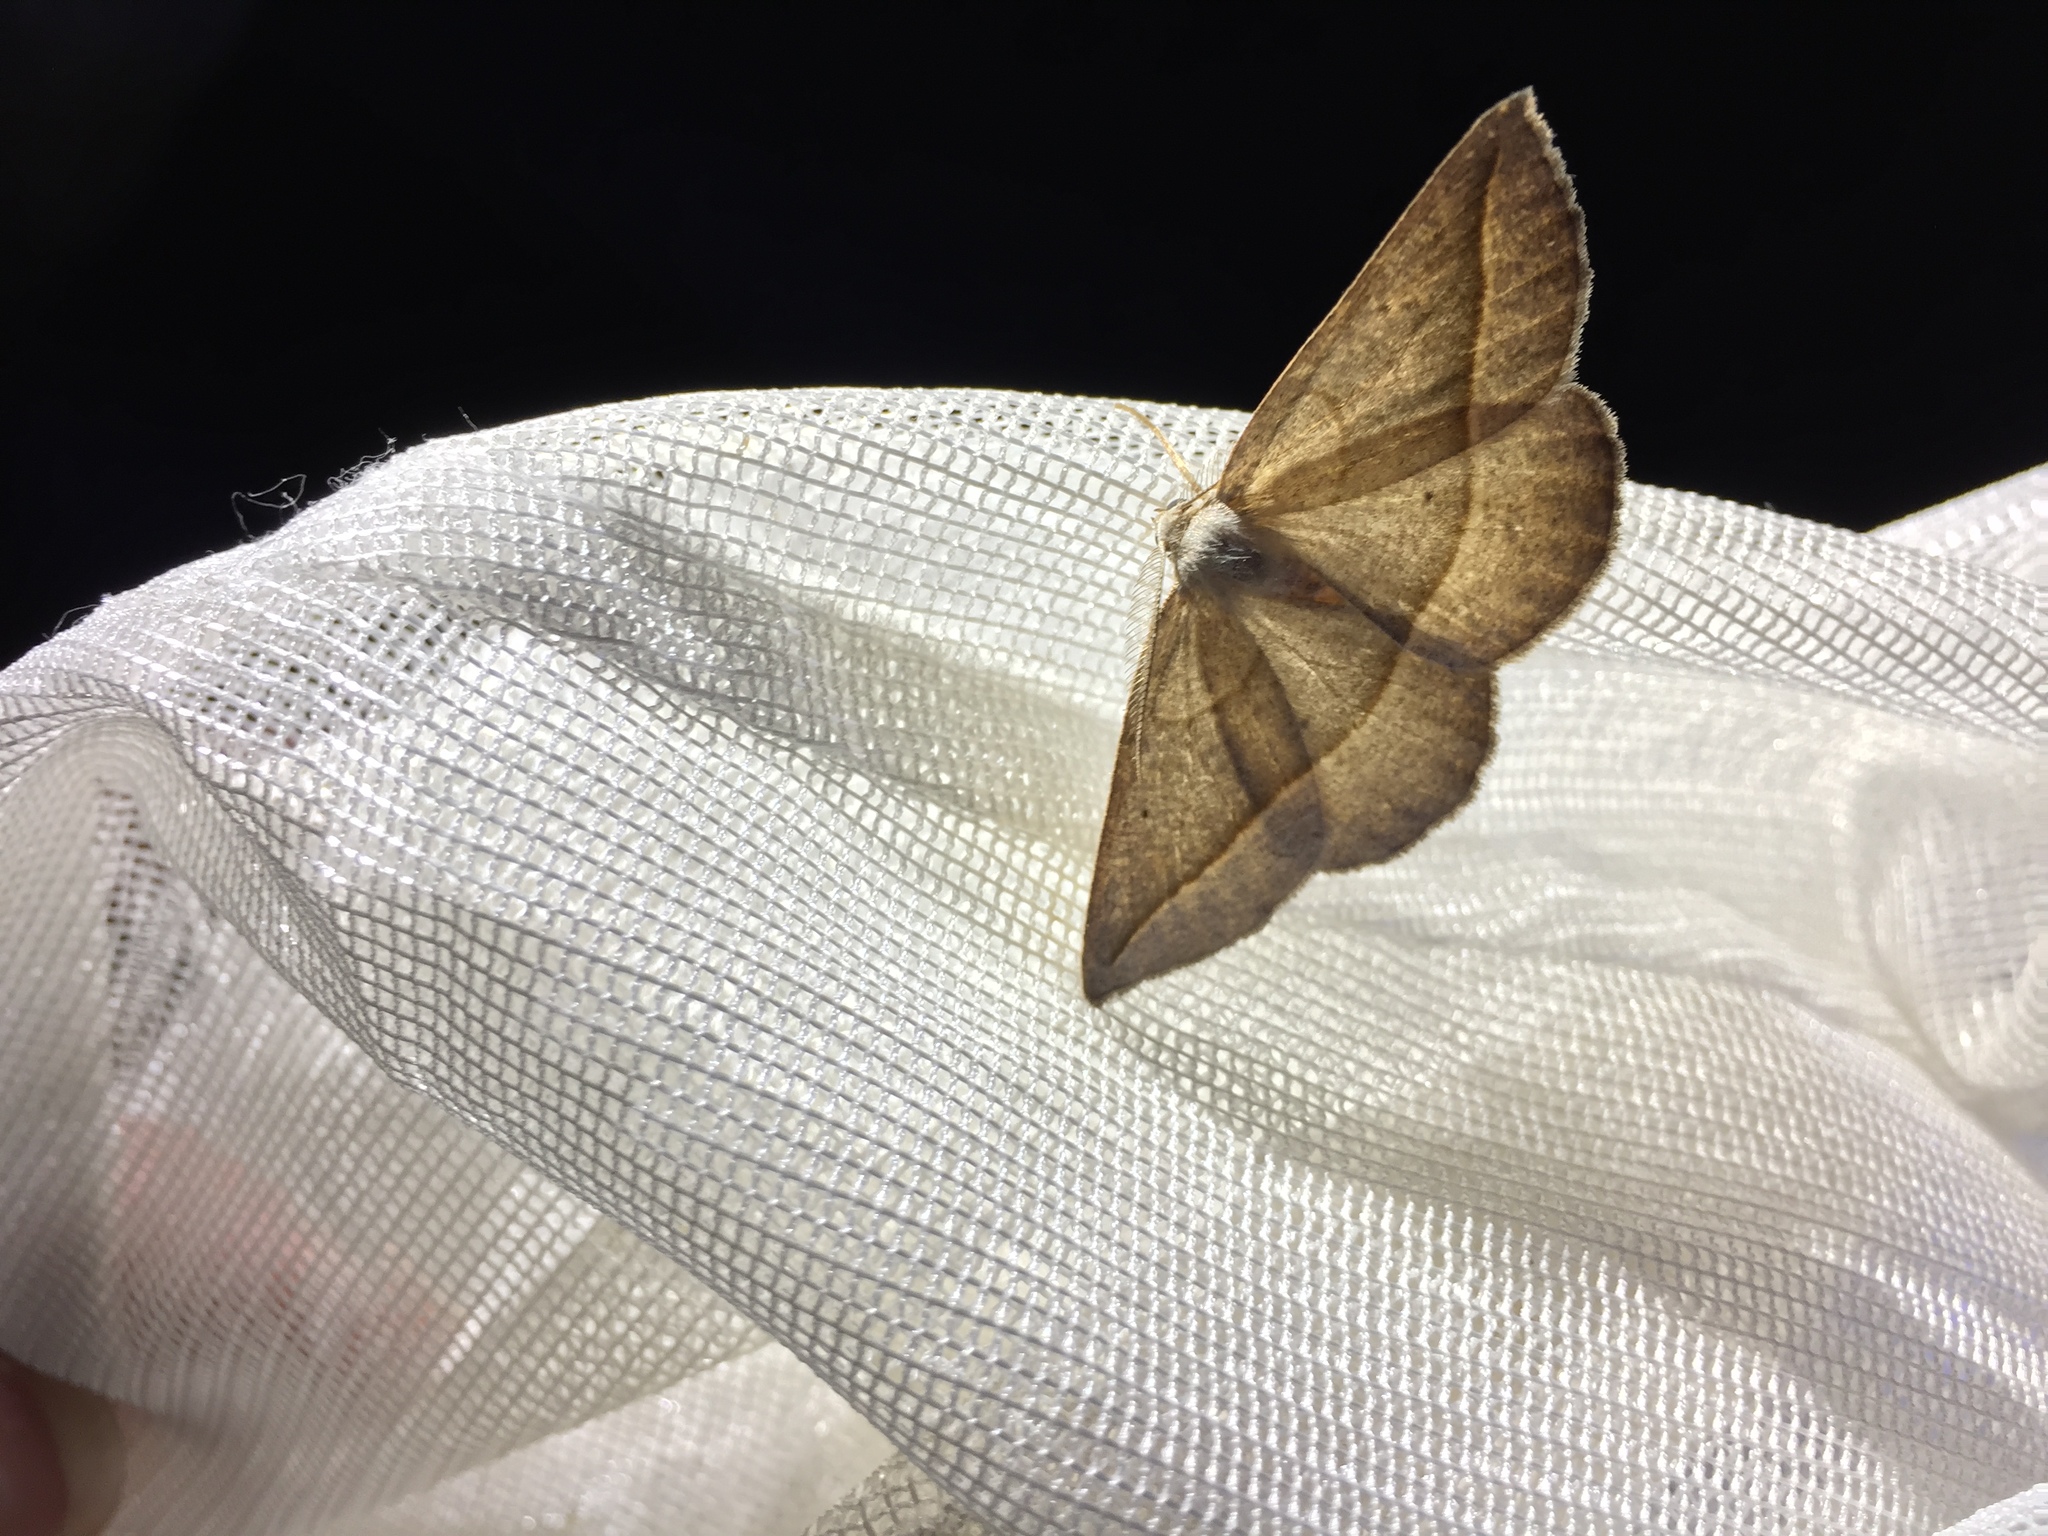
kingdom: Animalia
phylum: Arthropoda
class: Insecta
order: Lepidoptera
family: Geometridae
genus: Eusarca
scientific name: Eusarca confusaria
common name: Confused eusarca
